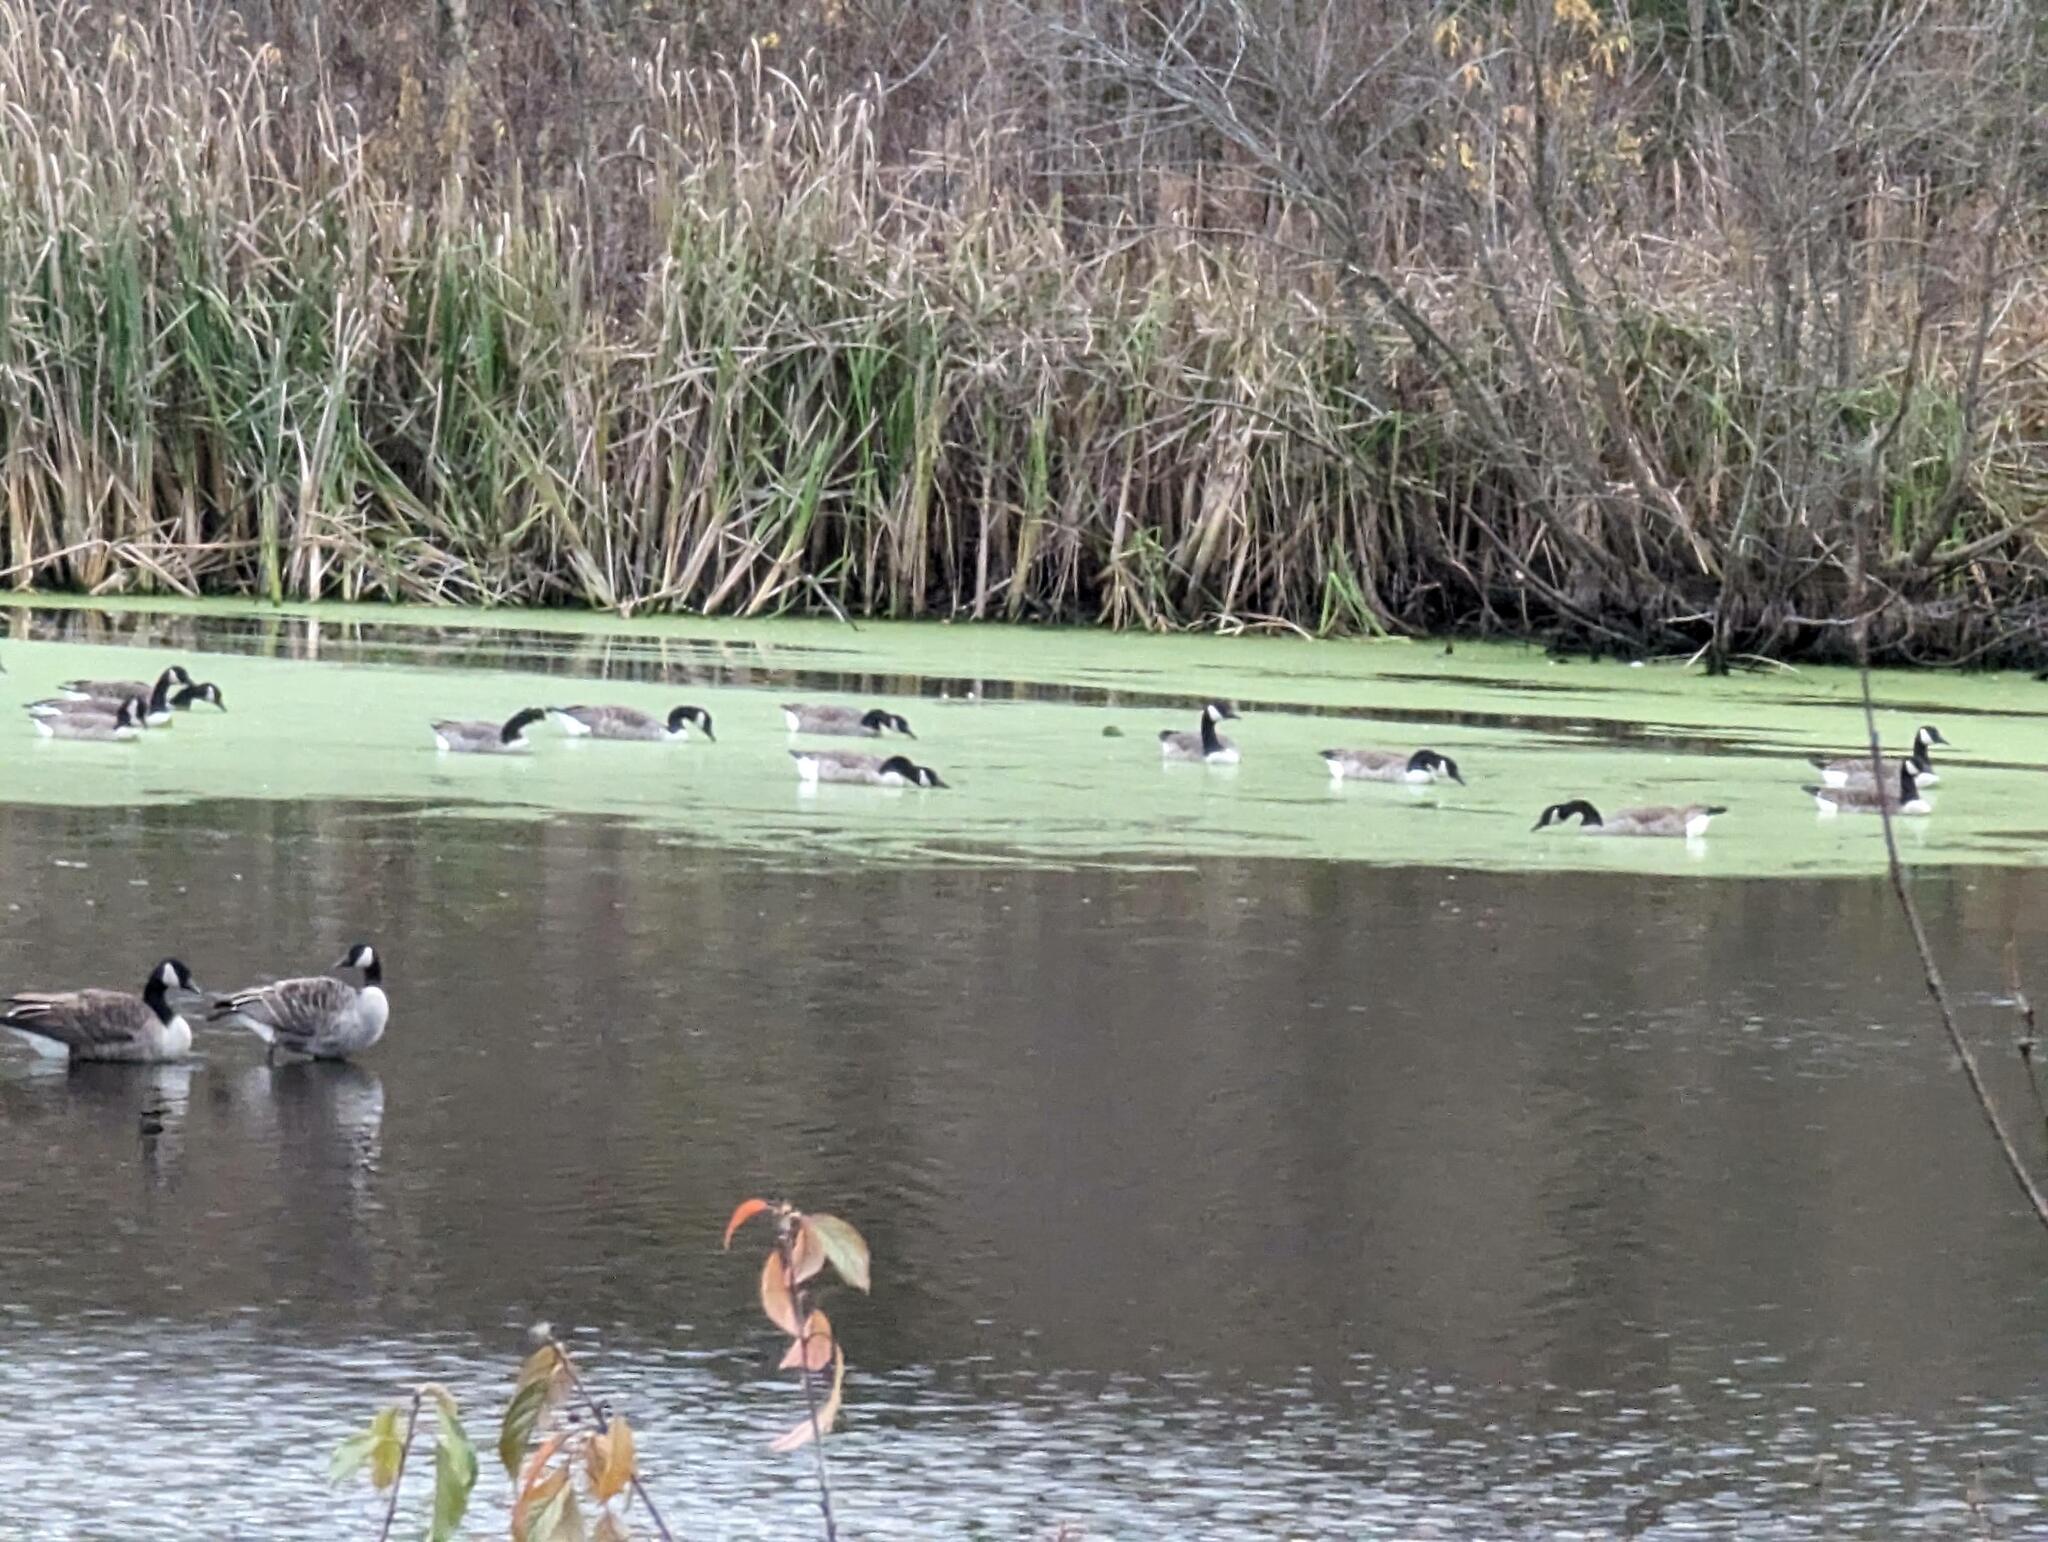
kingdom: Animalia
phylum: Chordata
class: Aves
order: Anseriformes
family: Anatidae
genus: Branta
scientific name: Branta canadensis
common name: Canada goose
